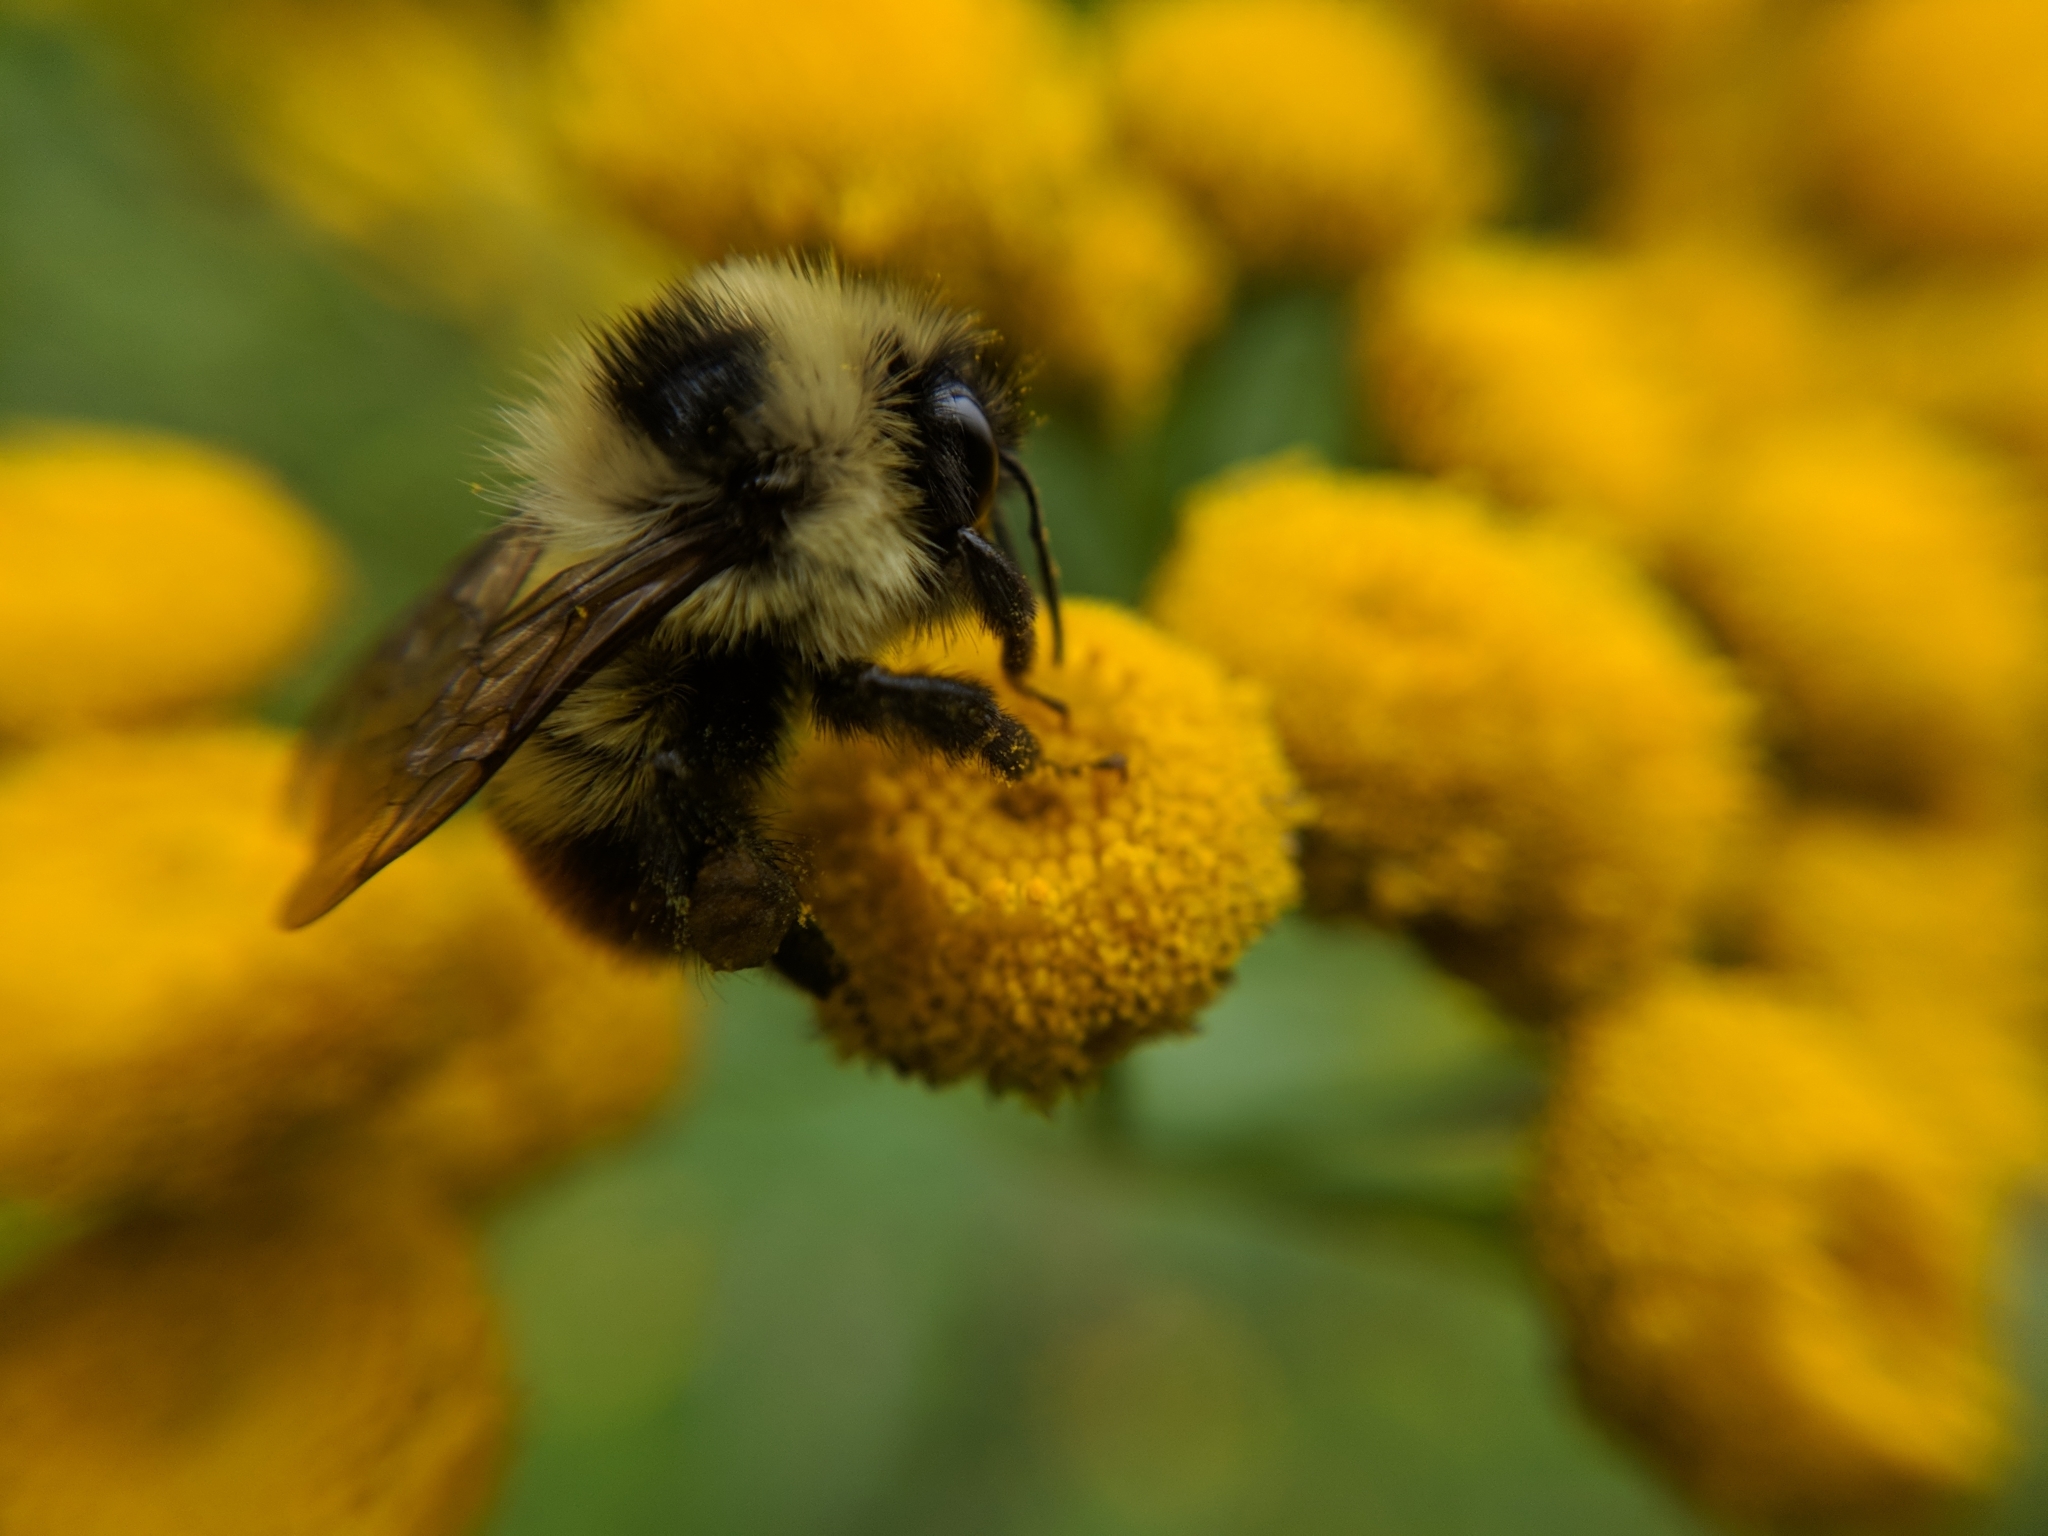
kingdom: Animalia
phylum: Arthropoda
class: Insecta
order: Hymenoptera
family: Apidae
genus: Bombus
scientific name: Bombus rufocinctus
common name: Red-belted bumble bee
